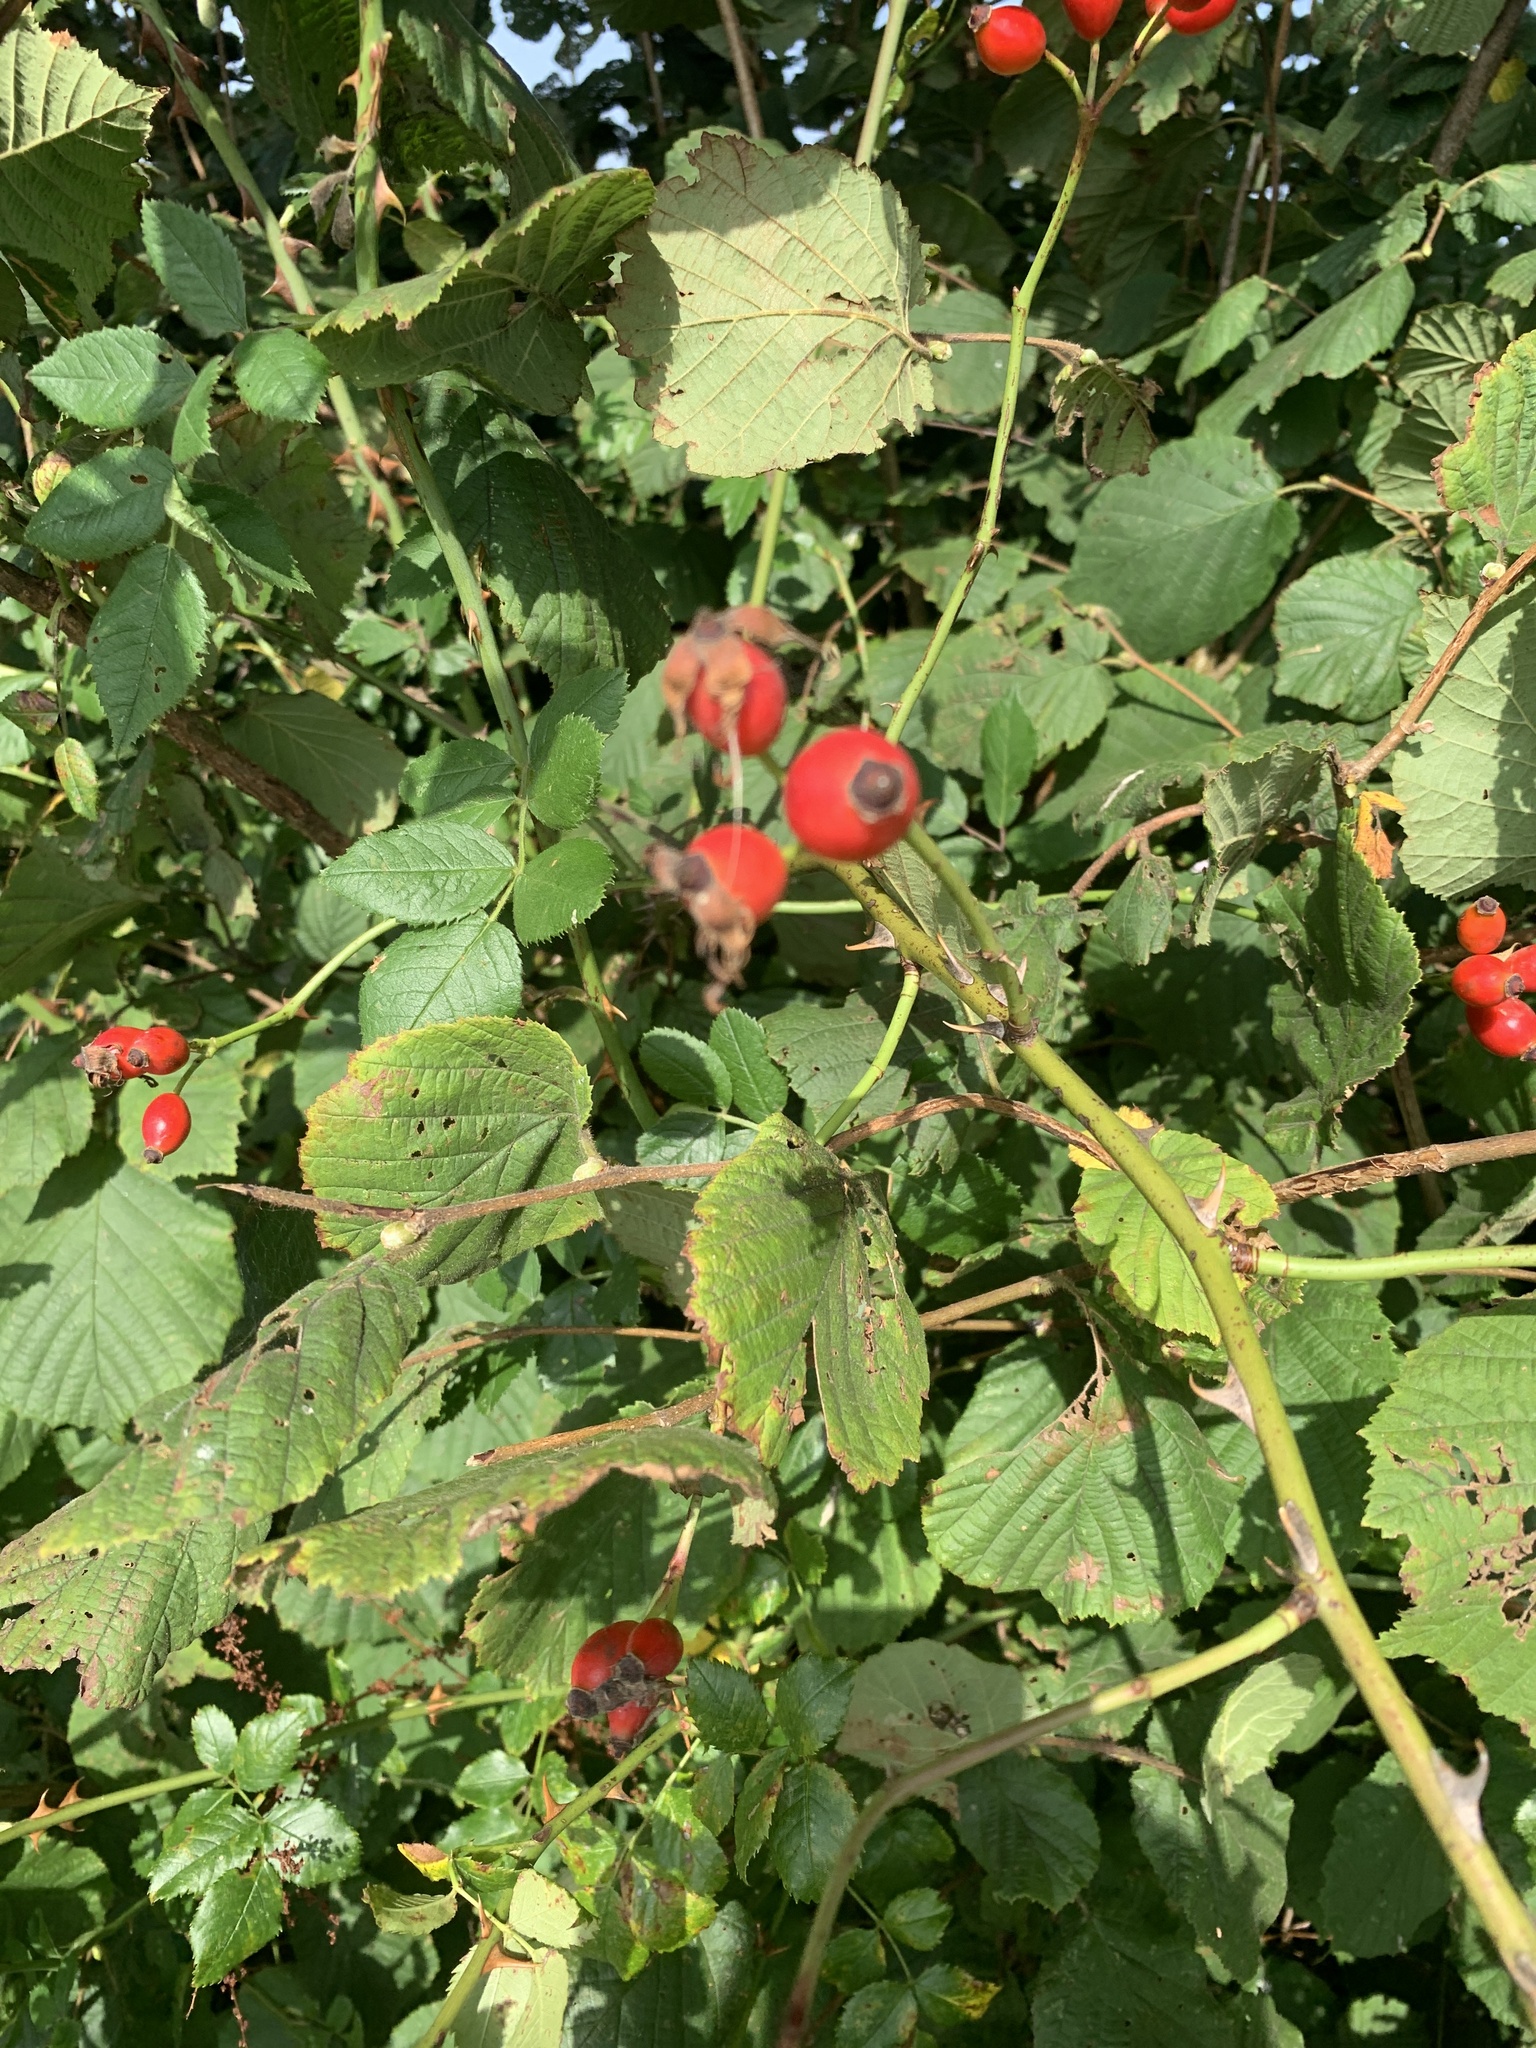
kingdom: Plantae
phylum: Tracheophyta
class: Magnoliopsida
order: Rosales
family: Rosaceae
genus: Rosa
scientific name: Rosa canina
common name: Dog rose
